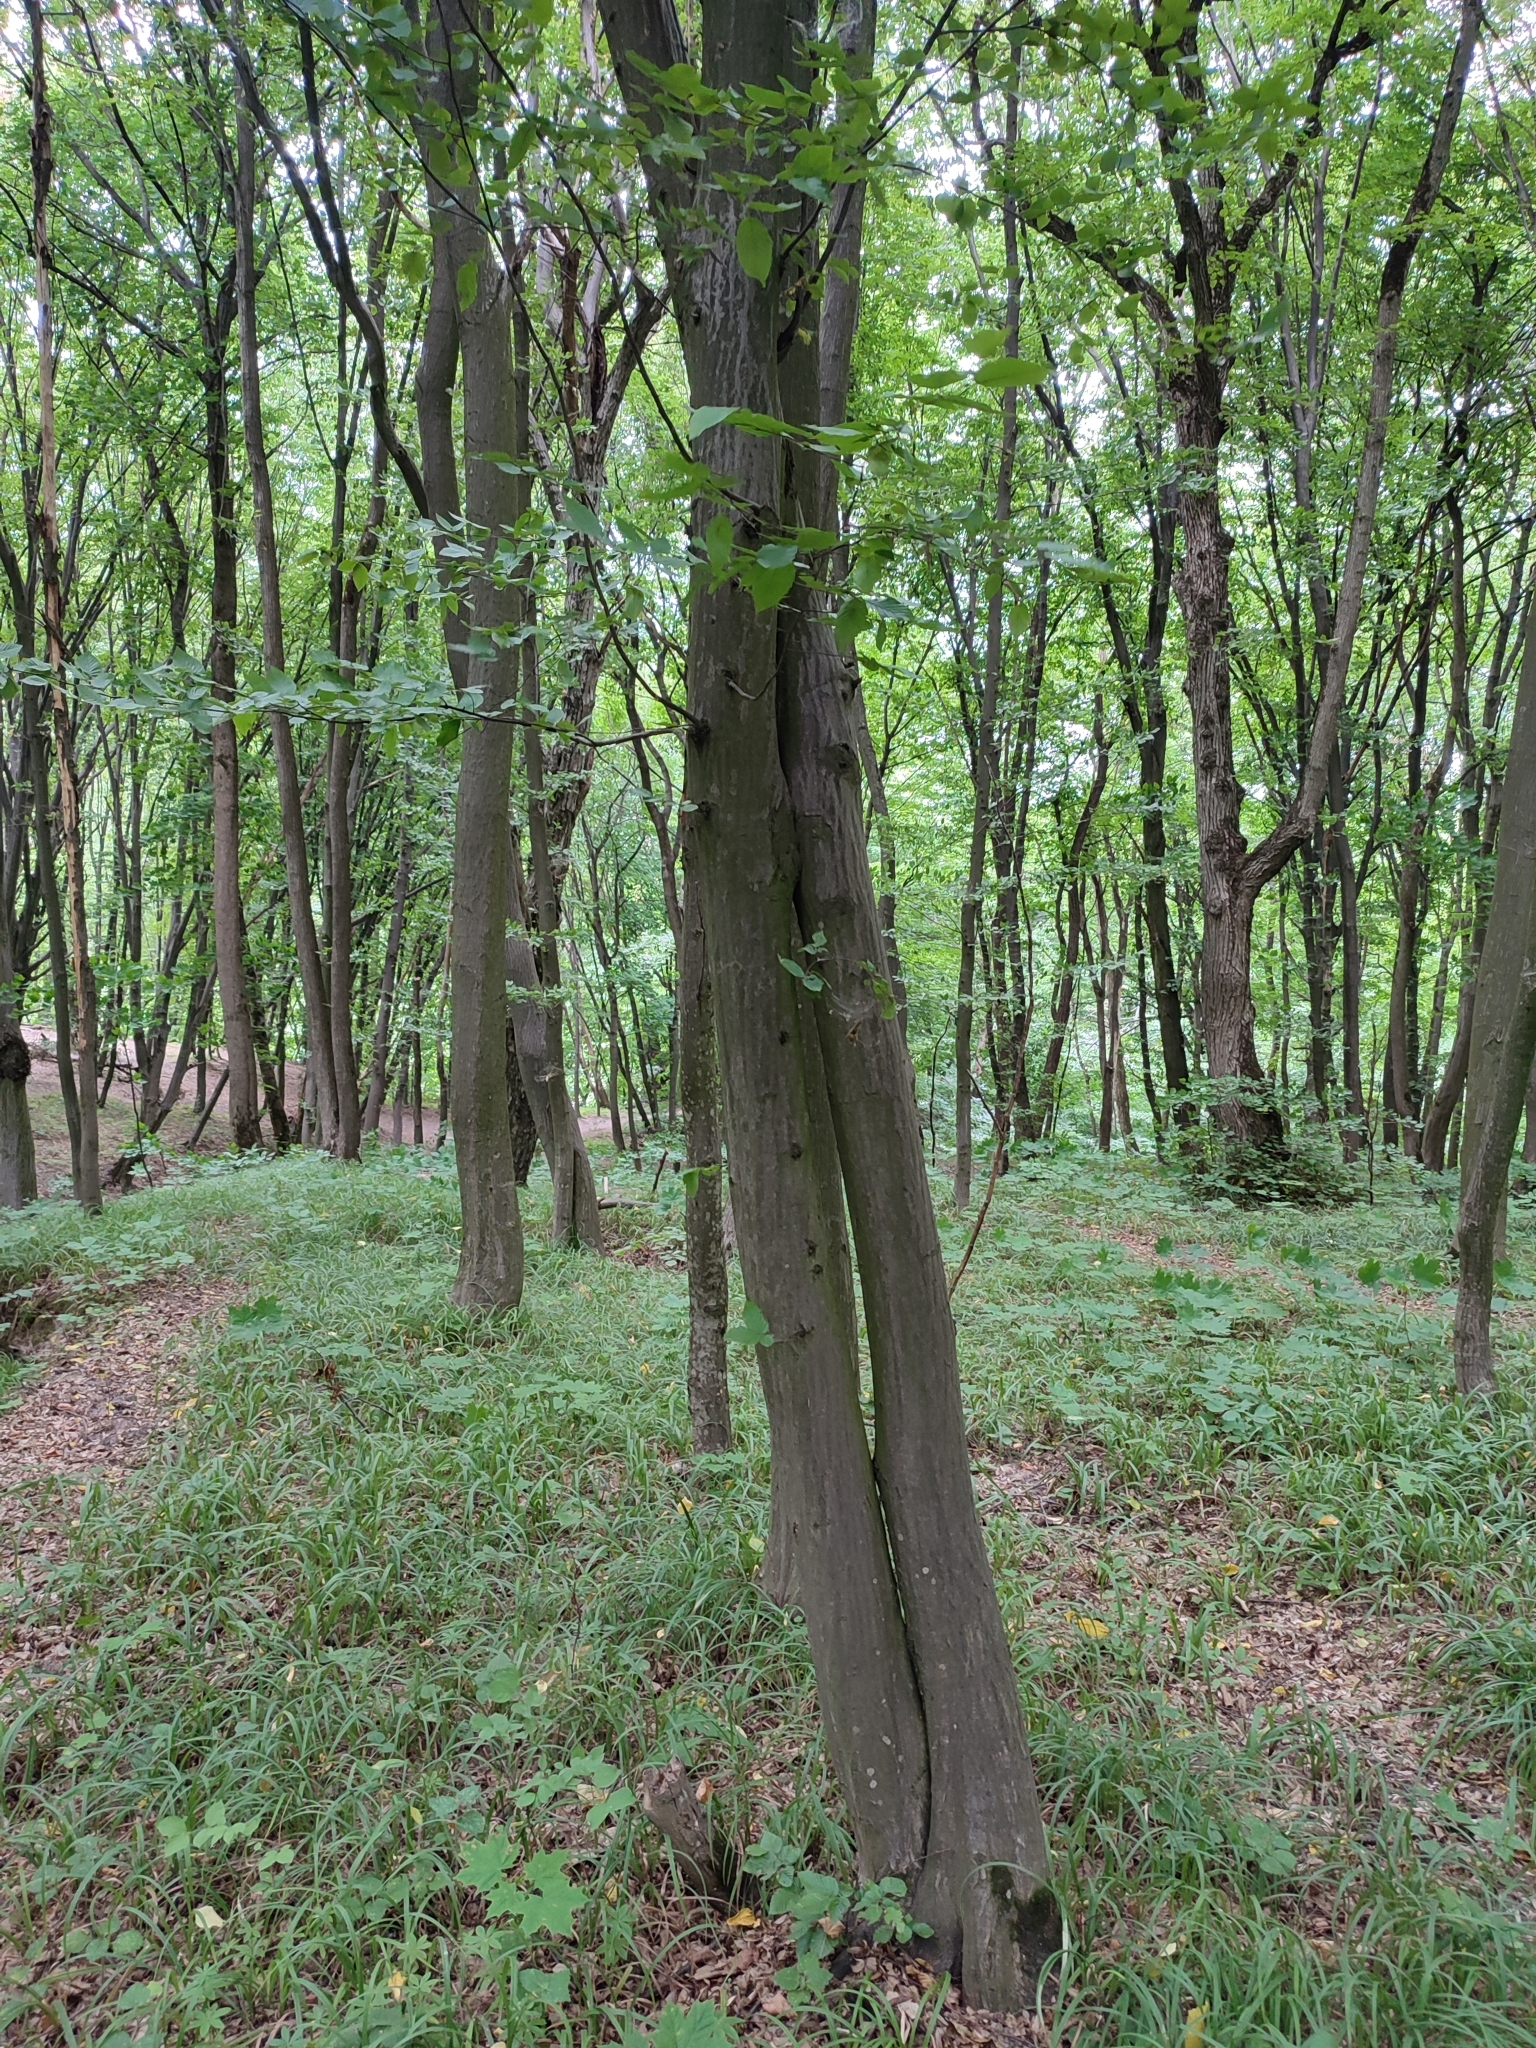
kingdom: Plantae
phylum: Tracheophyta
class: Magnoliopsida
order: Fagales
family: Betulaceae
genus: Carpinus
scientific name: Carpinus betulus
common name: Hornbeam
